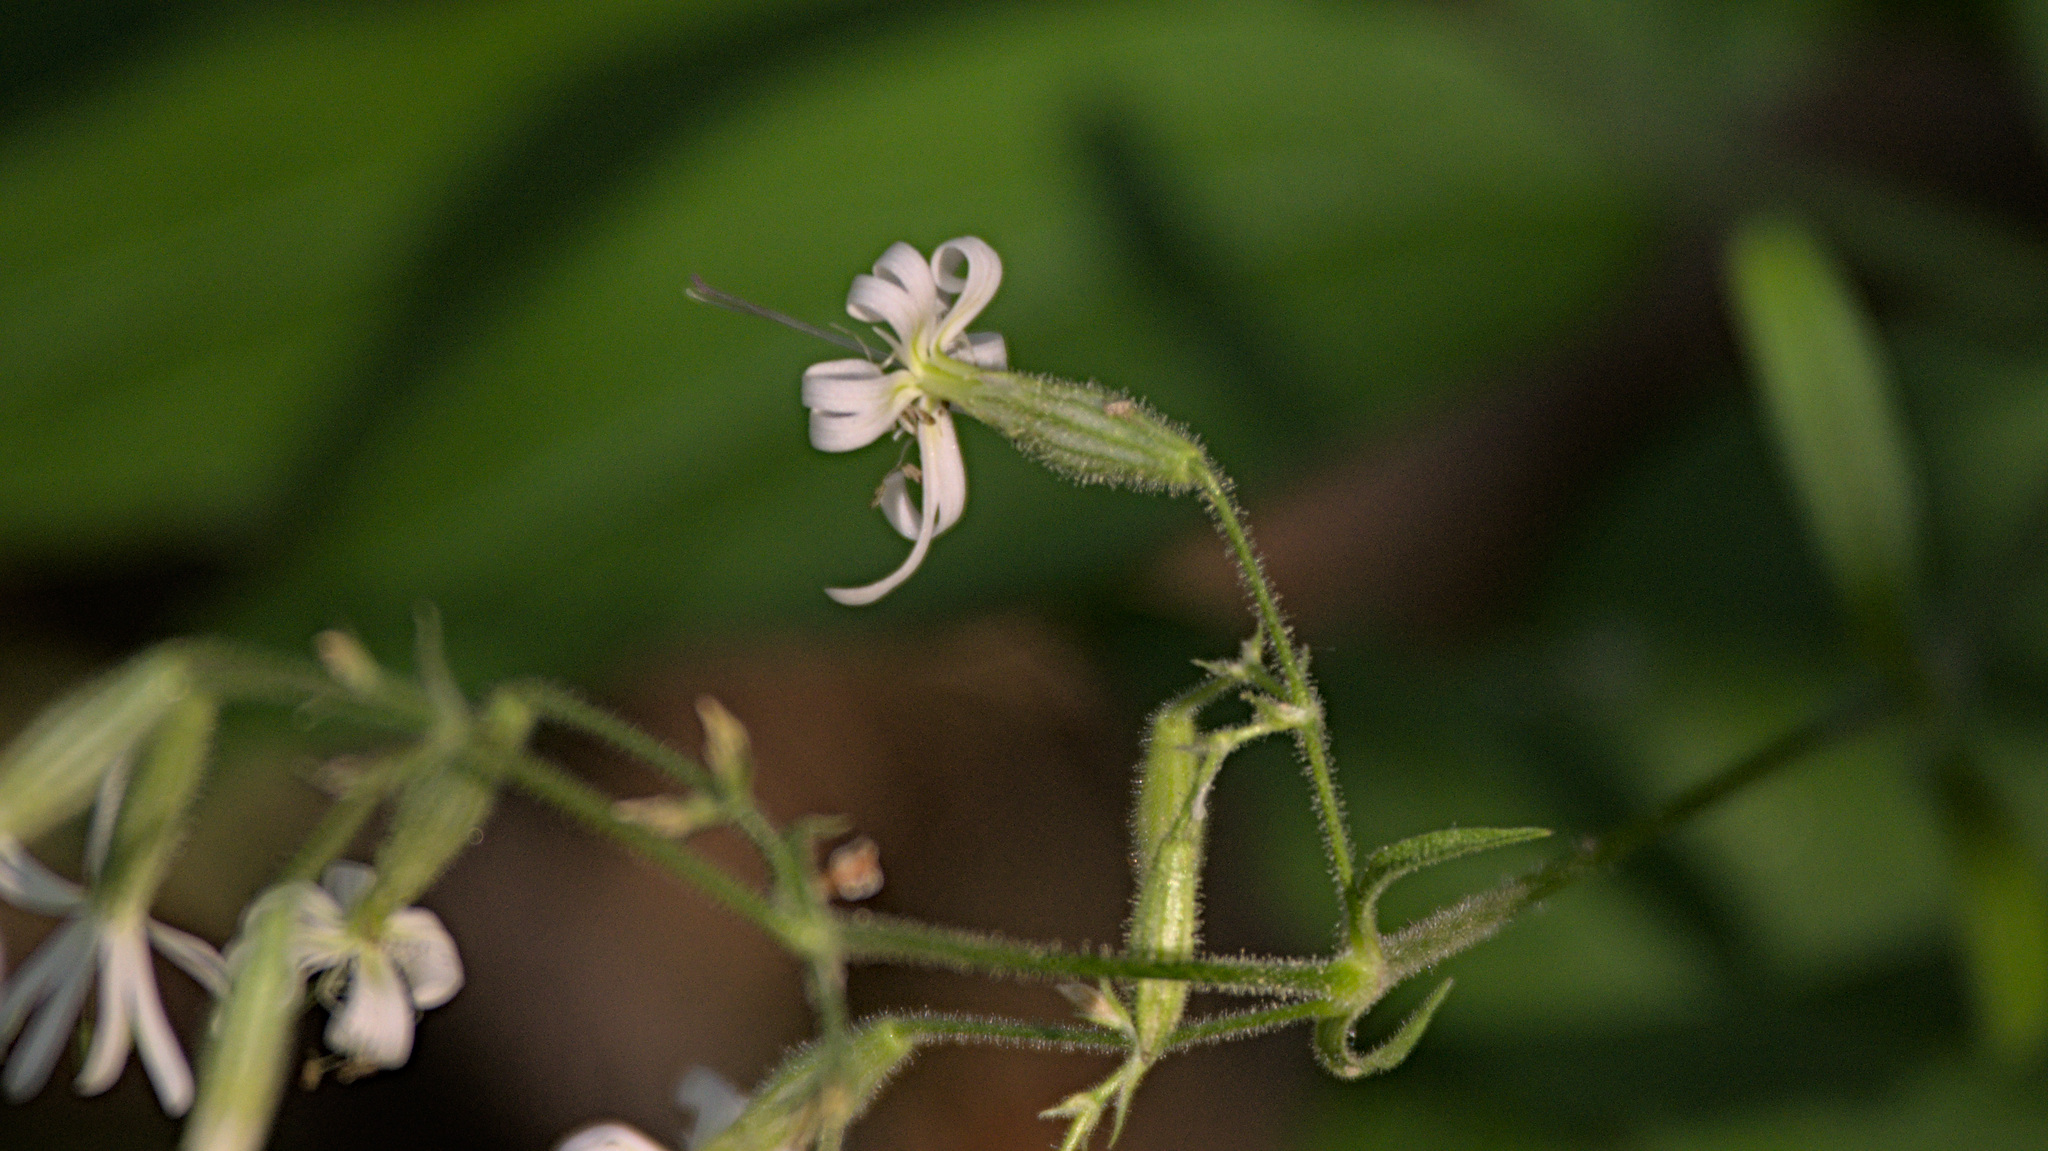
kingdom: Plantae
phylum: Tracheophyta
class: Magnoliopsida
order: Caryophyllales
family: Caryophyllaceae
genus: Silene
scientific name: Silene nutans
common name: Nottingham catchfly
